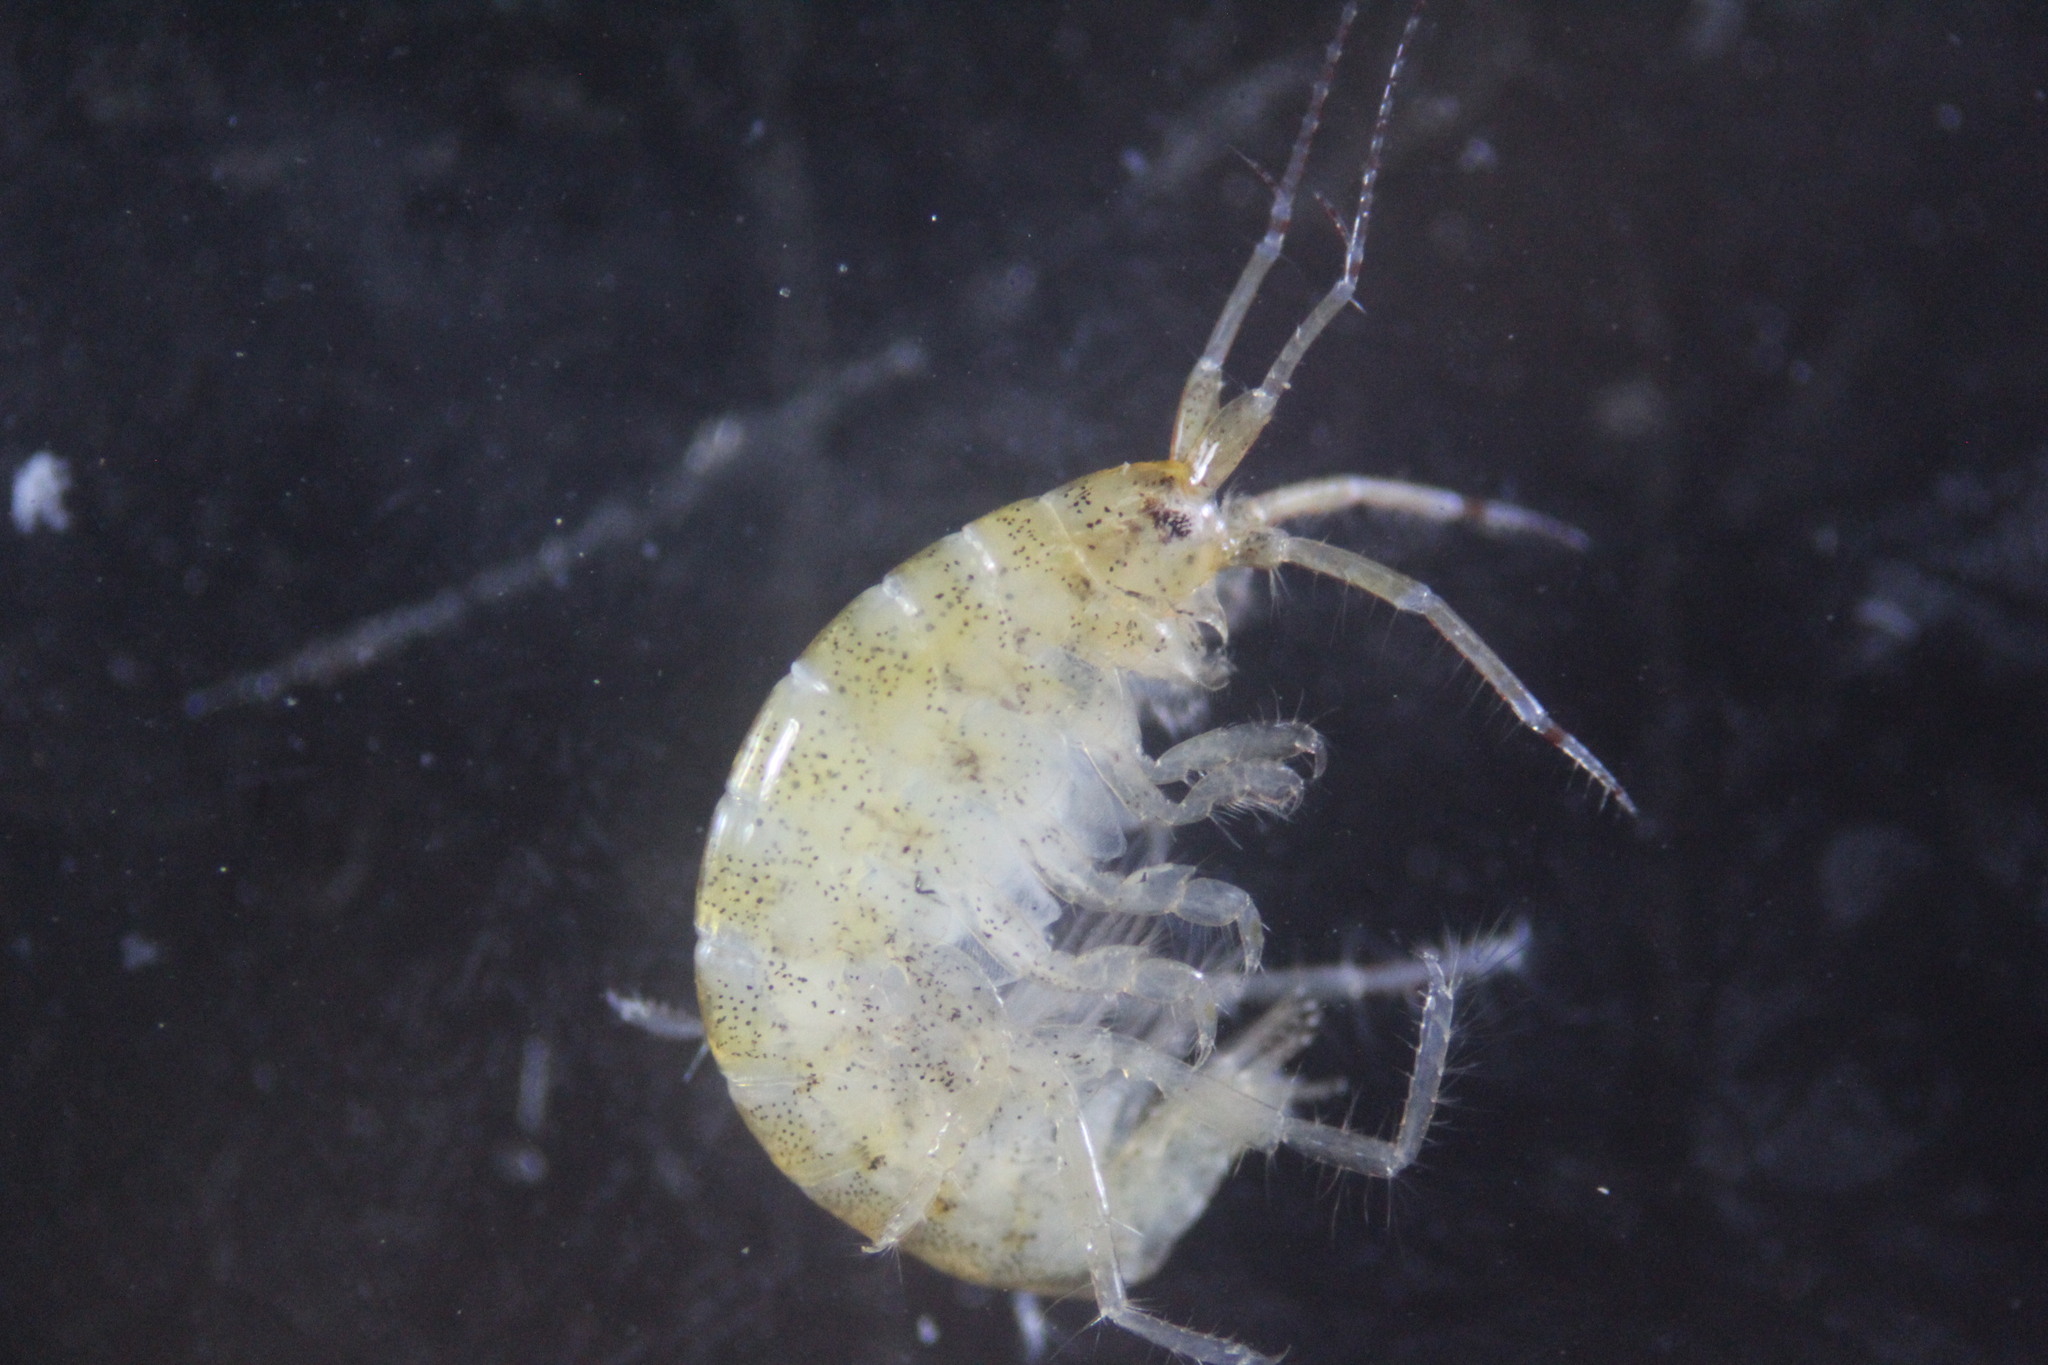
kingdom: Animalia
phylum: Arthropoda
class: Malacostraca
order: Amphipoda
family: Aoridae
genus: Aora
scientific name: Aora typica
